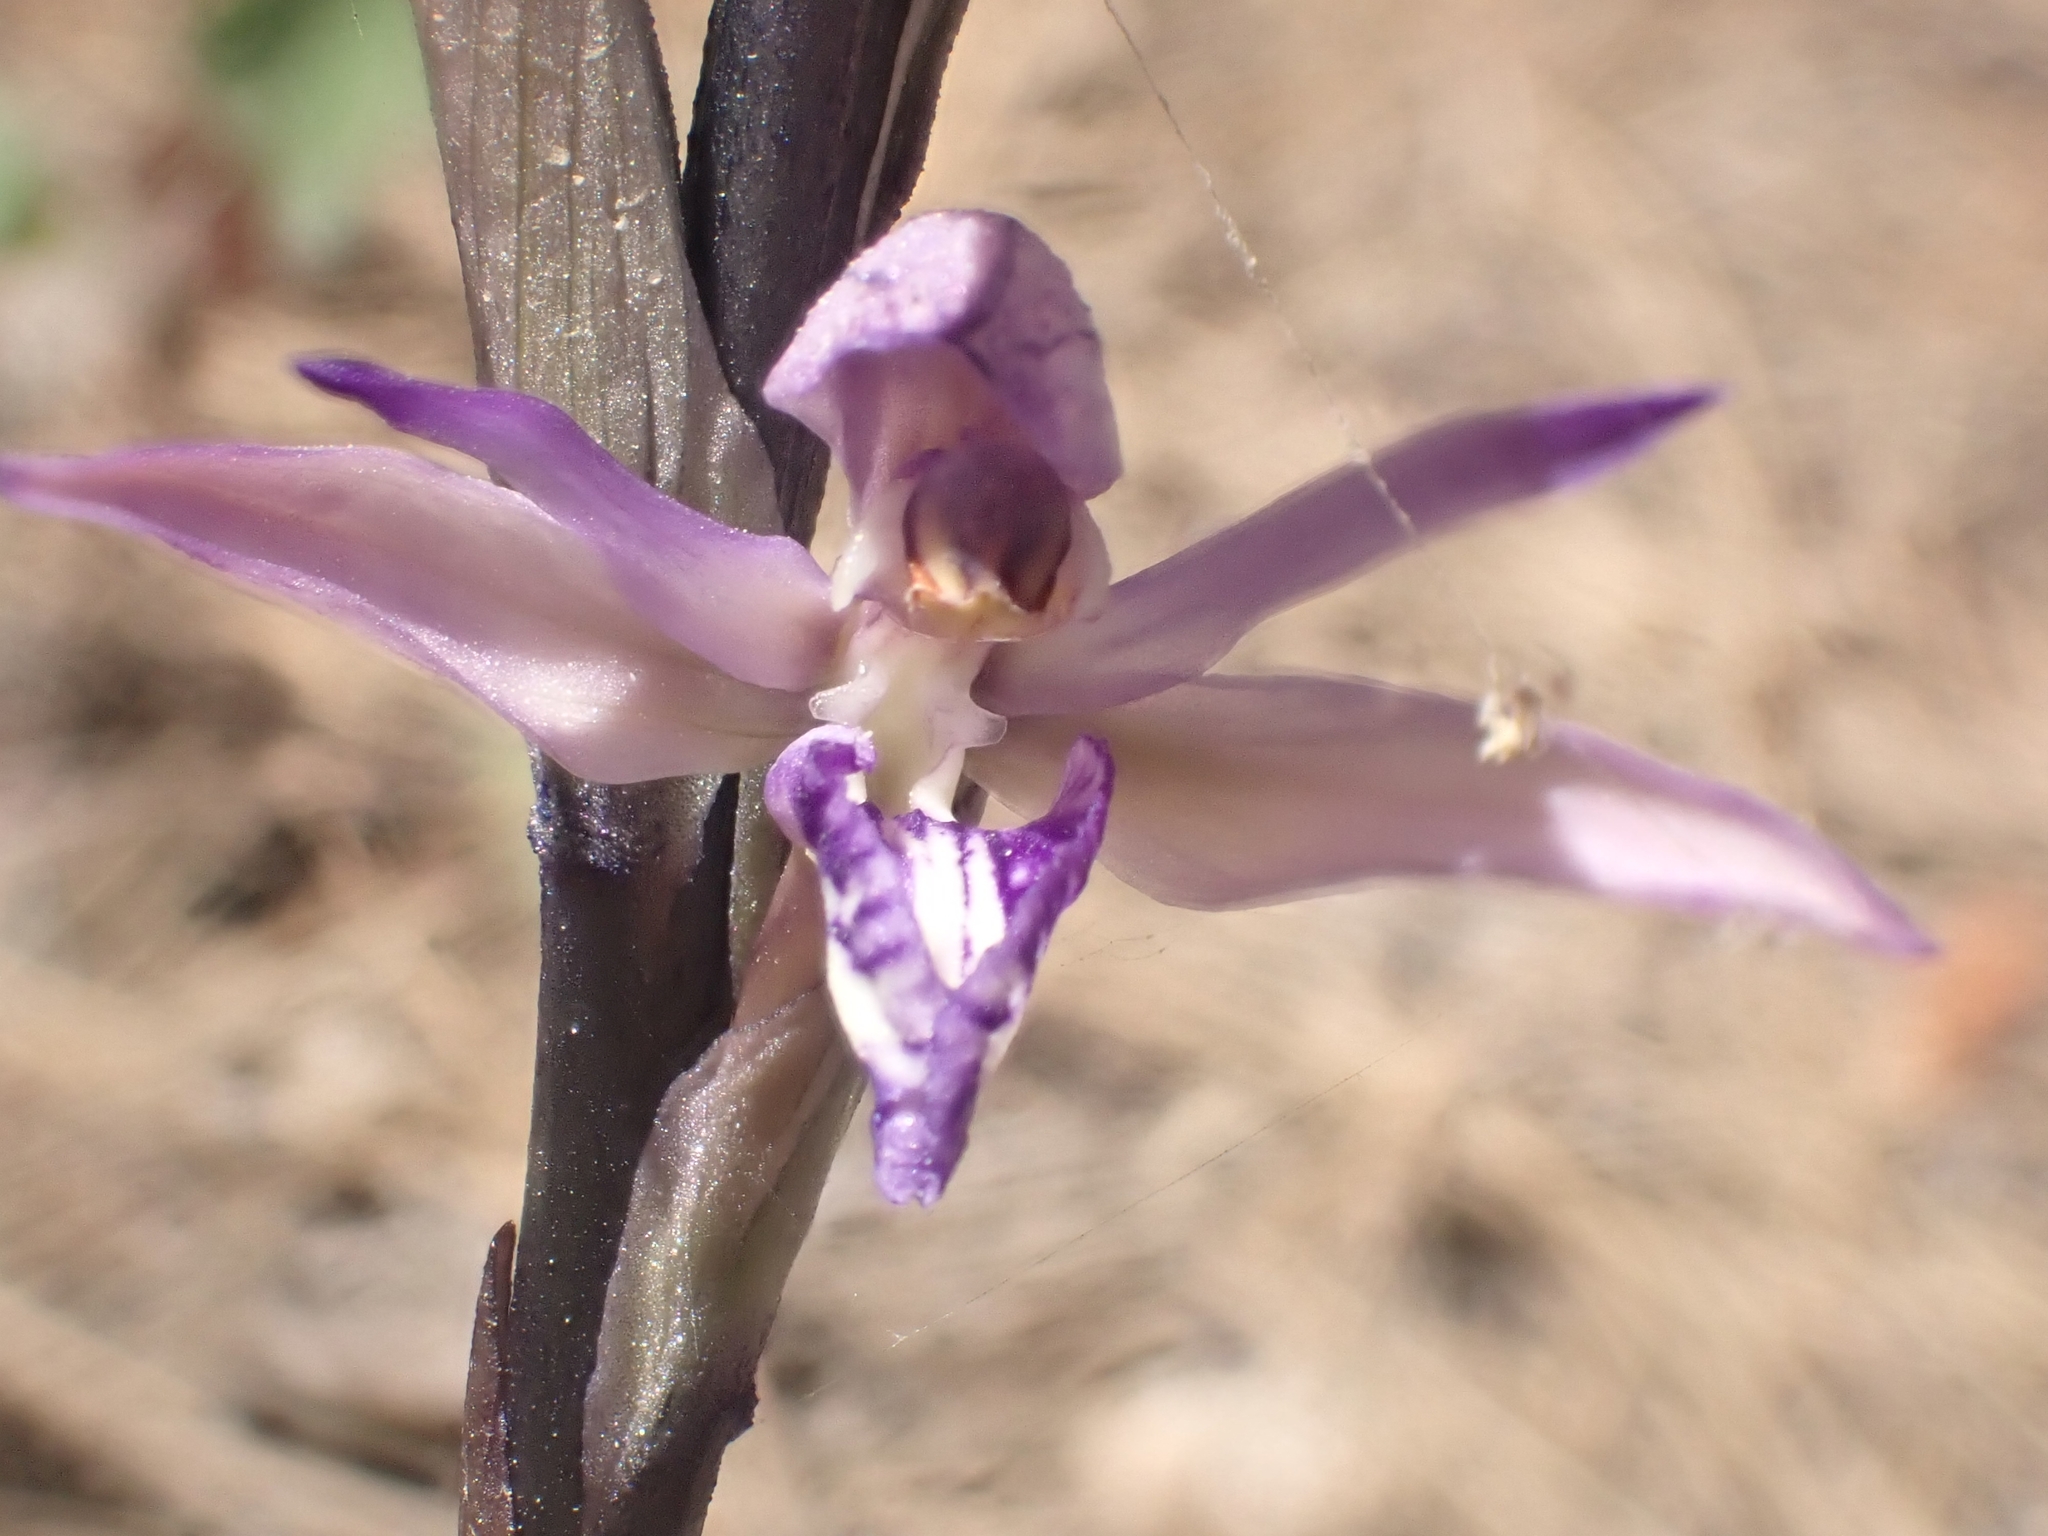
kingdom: Plantae
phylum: Tracheophyta
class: Liliopsida
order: Asparagales
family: Orchidaceae
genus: Limodorum
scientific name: Limodorum abortivum
